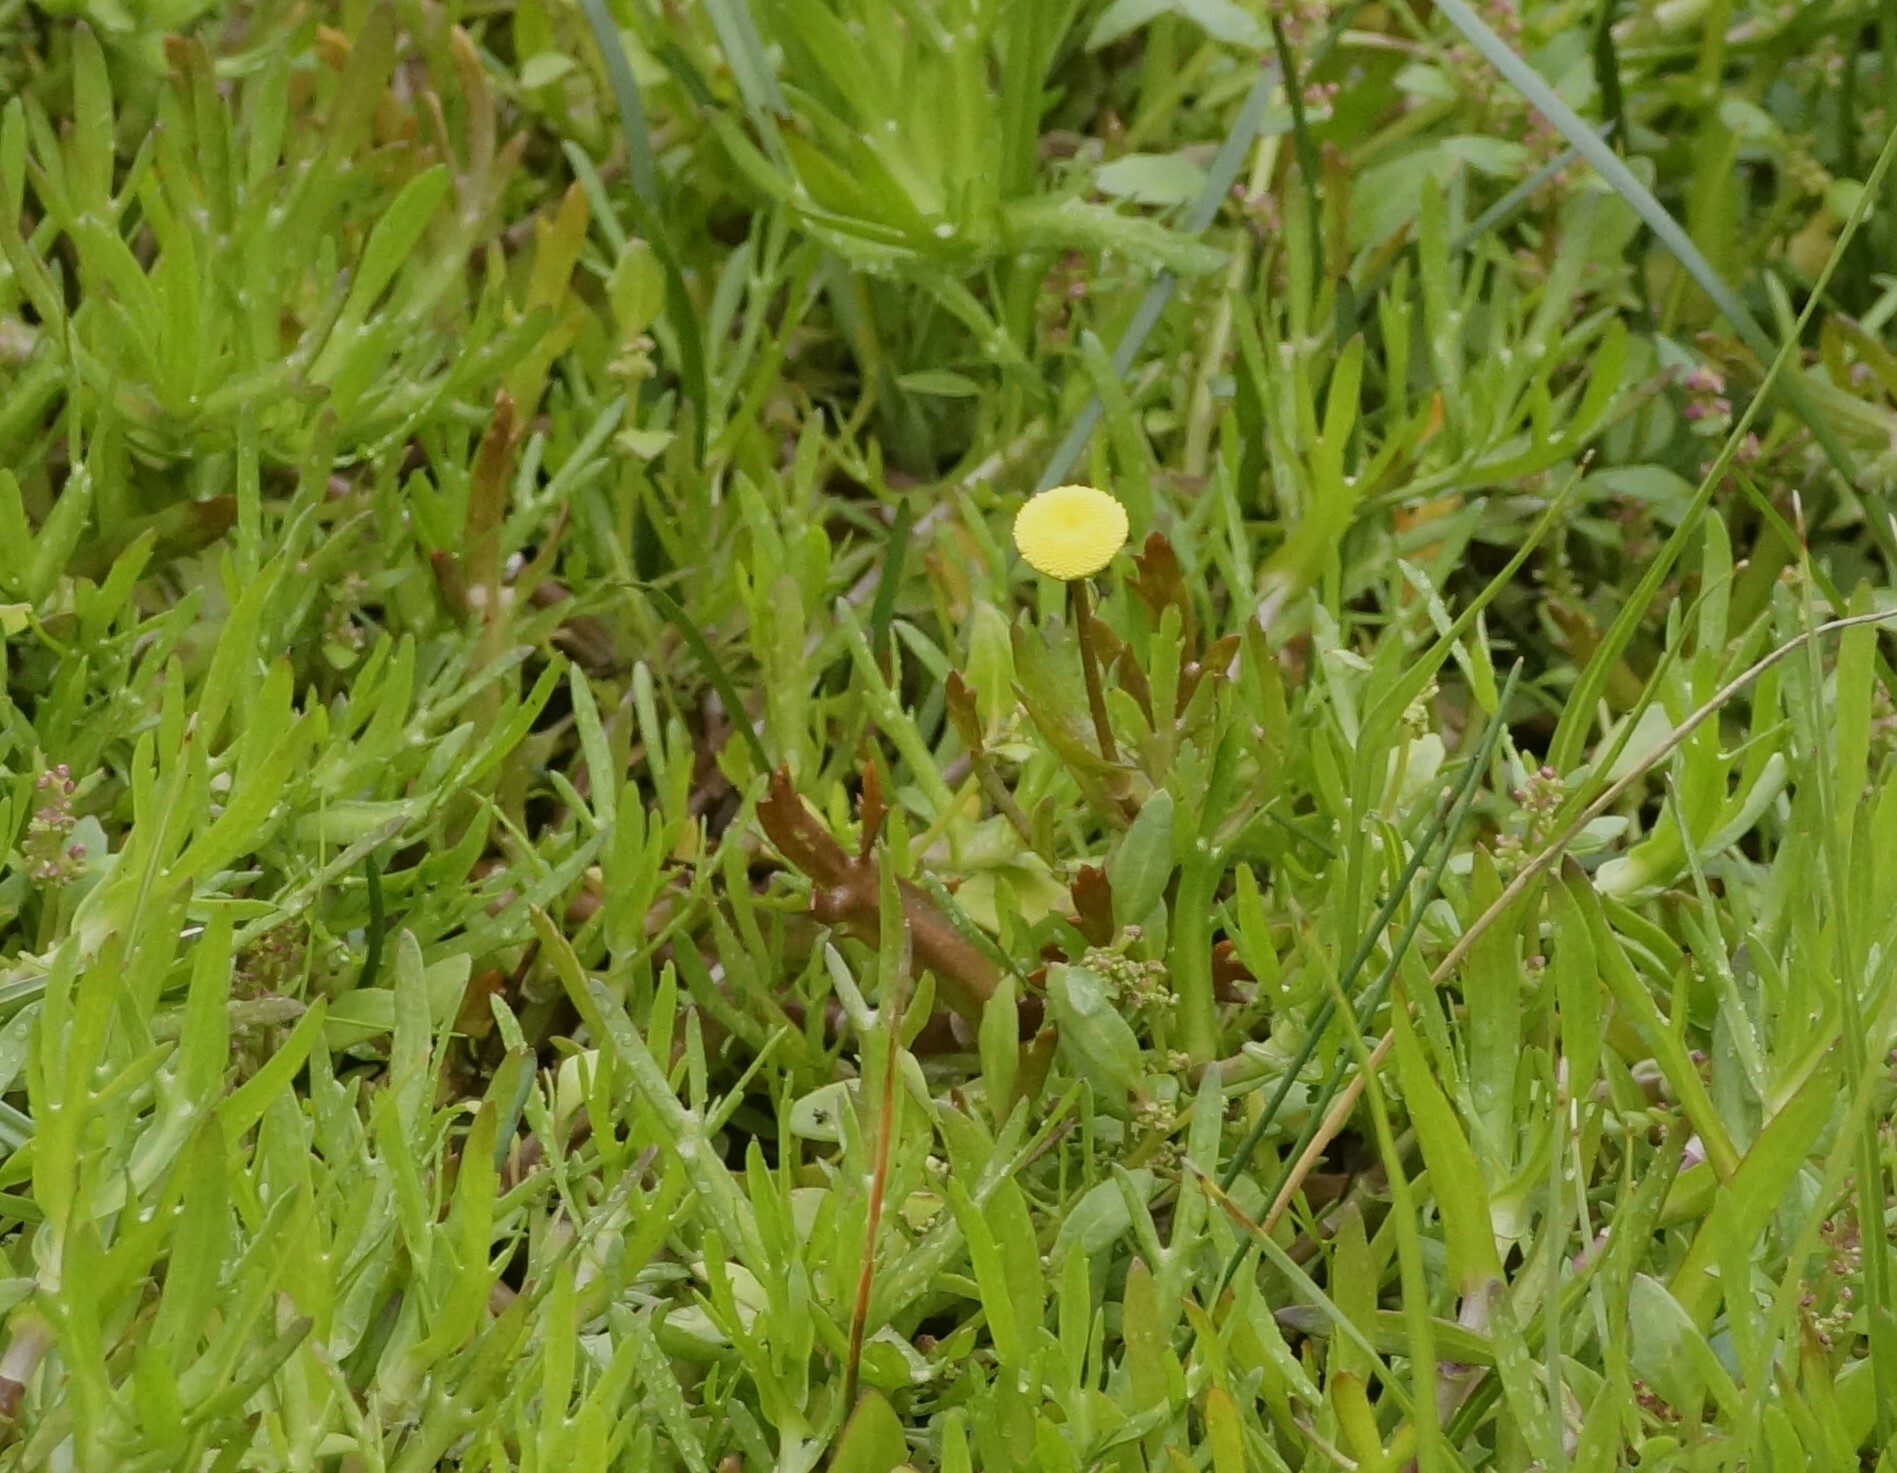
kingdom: Plantae
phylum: Tracheophyta
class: Magnoliopsida
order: Asterales
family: Asteraceae
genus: Cotula
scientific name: Cotula coronopifolia
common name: Buttonweed
